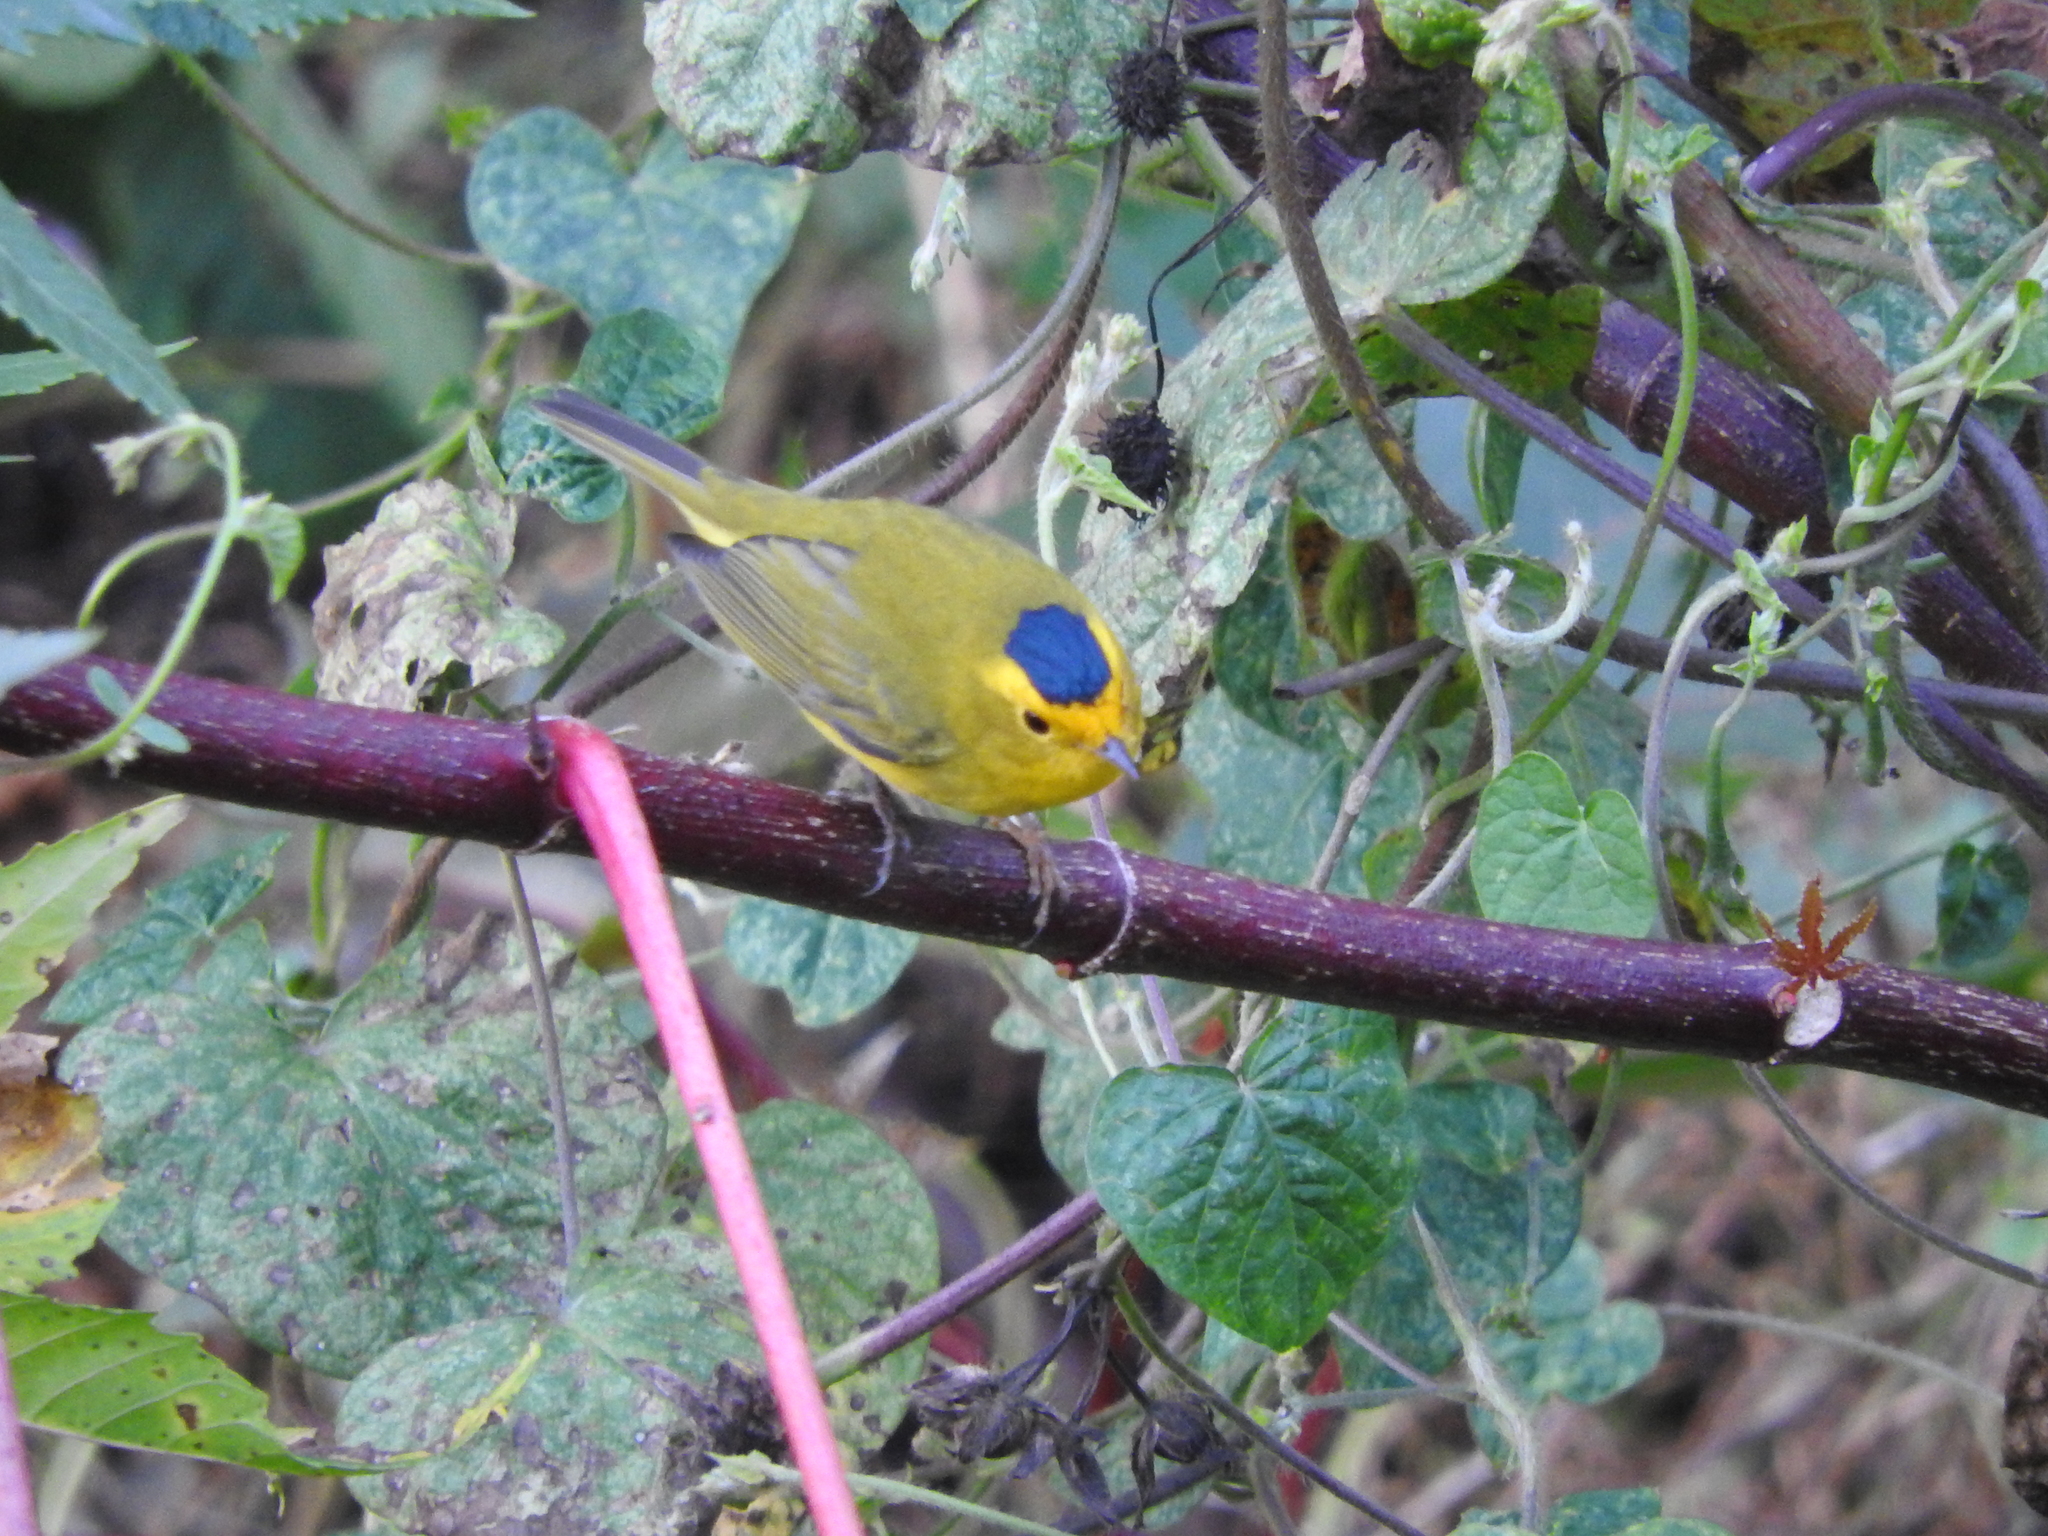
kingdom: Animalia
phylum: Chordata
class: Aves
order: Passeriformes
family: Parulidae
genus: Cardellina
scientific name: Cardellina pusilla
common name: Wilson's warbler
